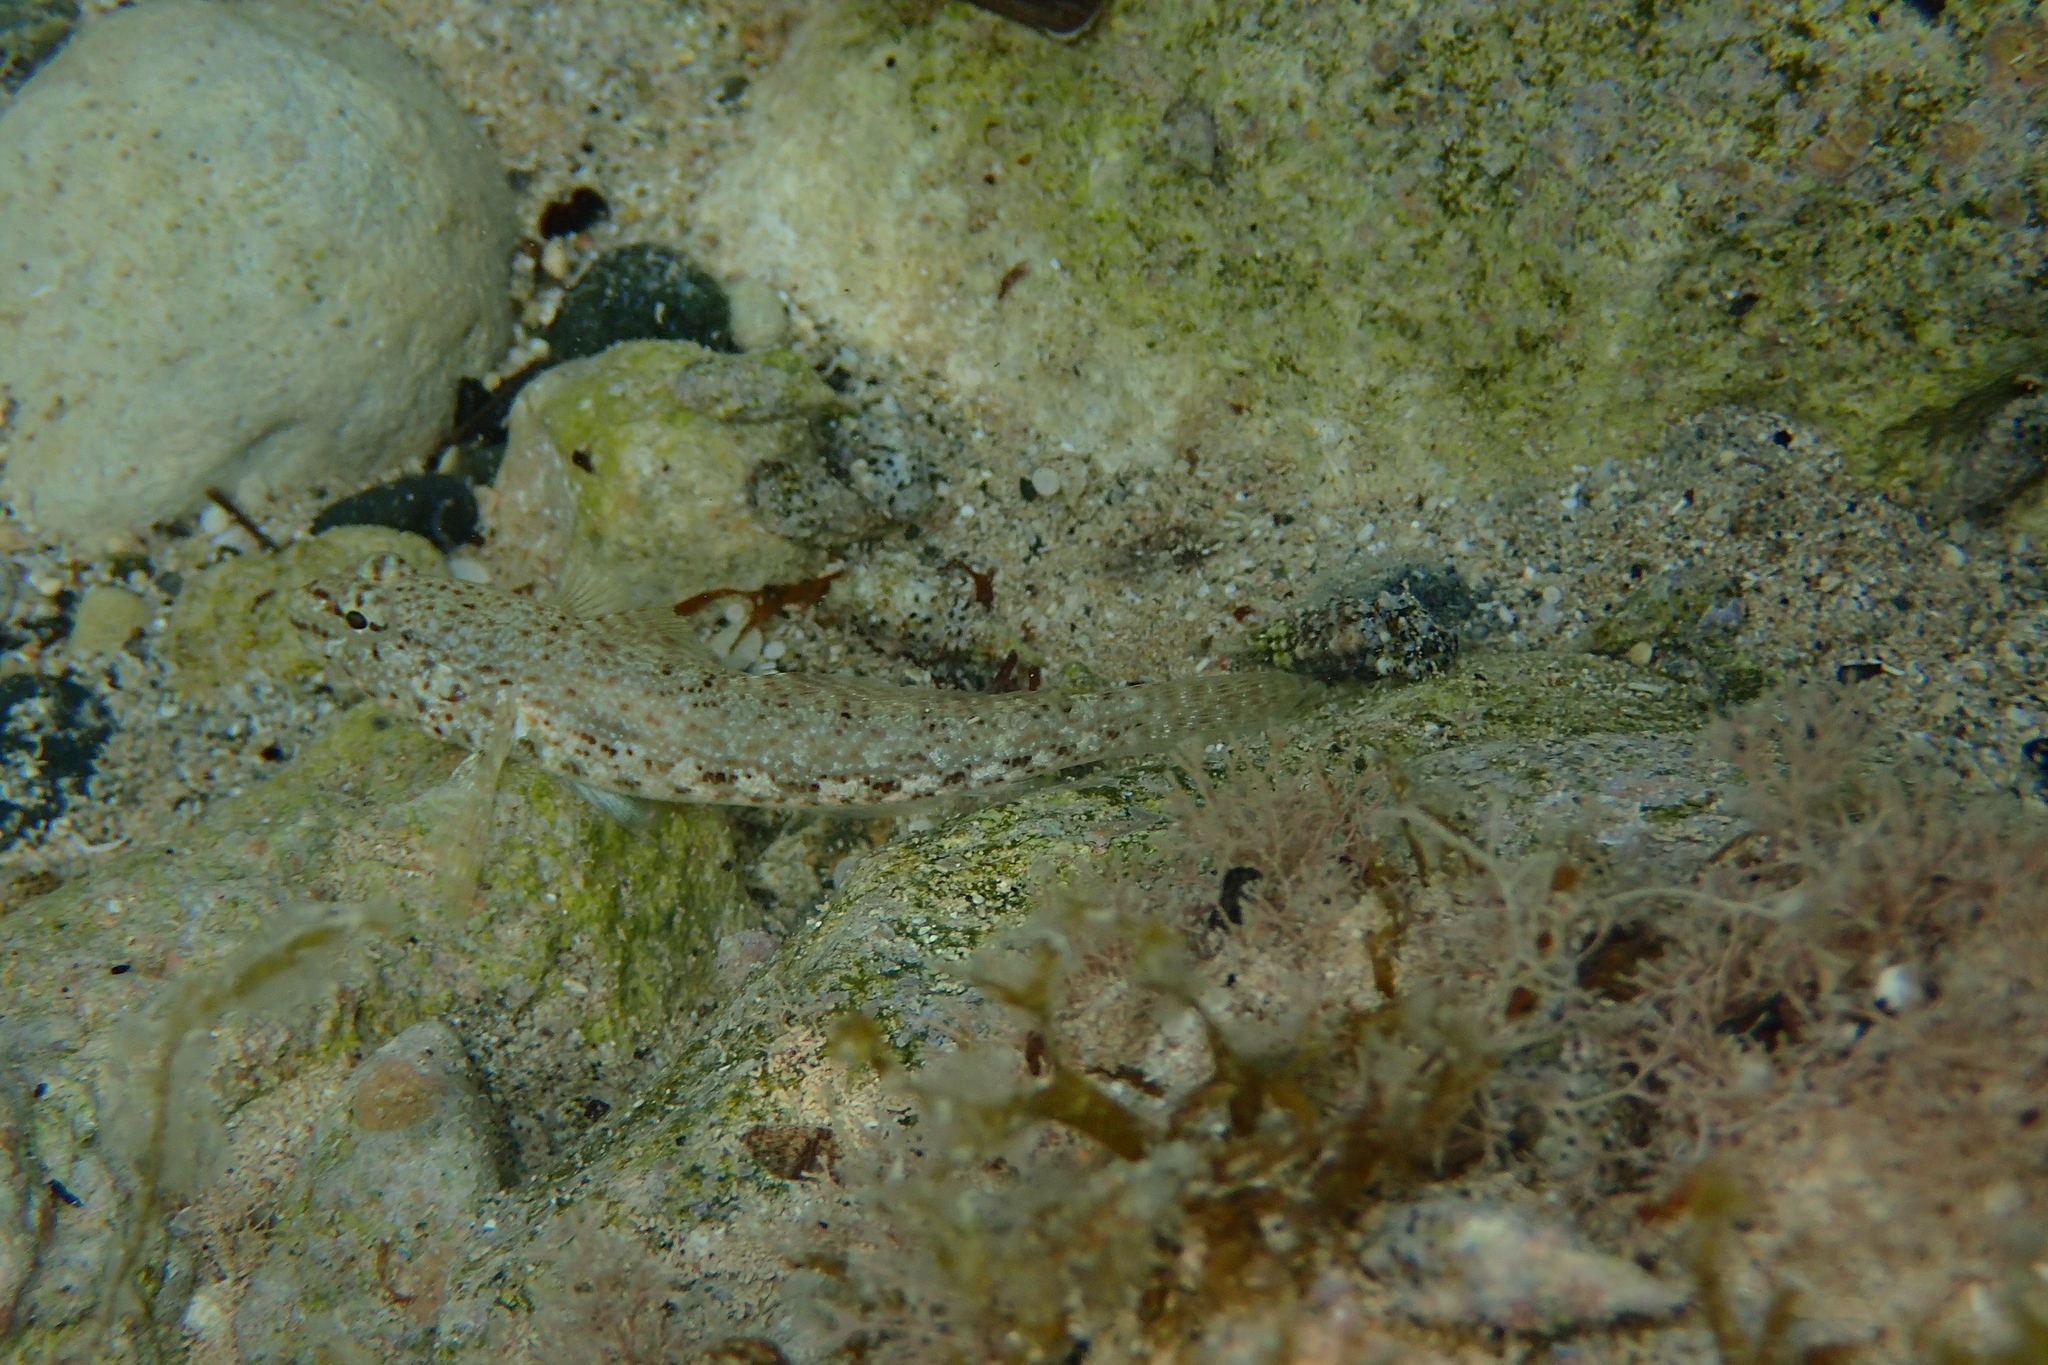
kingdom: Animalia
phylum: Chordata
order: Perciformes
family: Gobiidae
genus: Gobius
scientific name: Gobius incognitus
